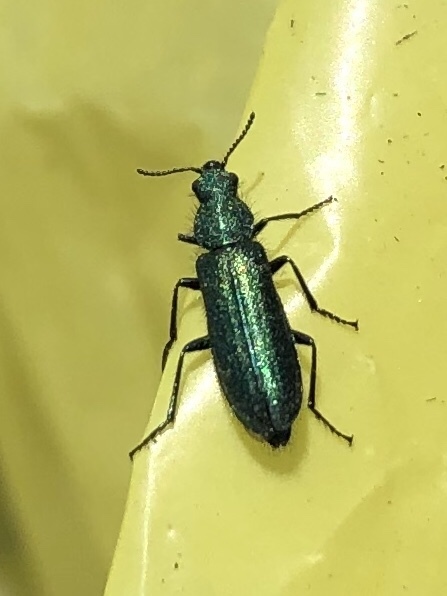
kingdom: Animalia
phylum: Arthropoda
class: Insecta
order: Coleoptera
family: Dasytidae
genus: Psilothrix
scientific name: Psilothrix viridicoerulea
